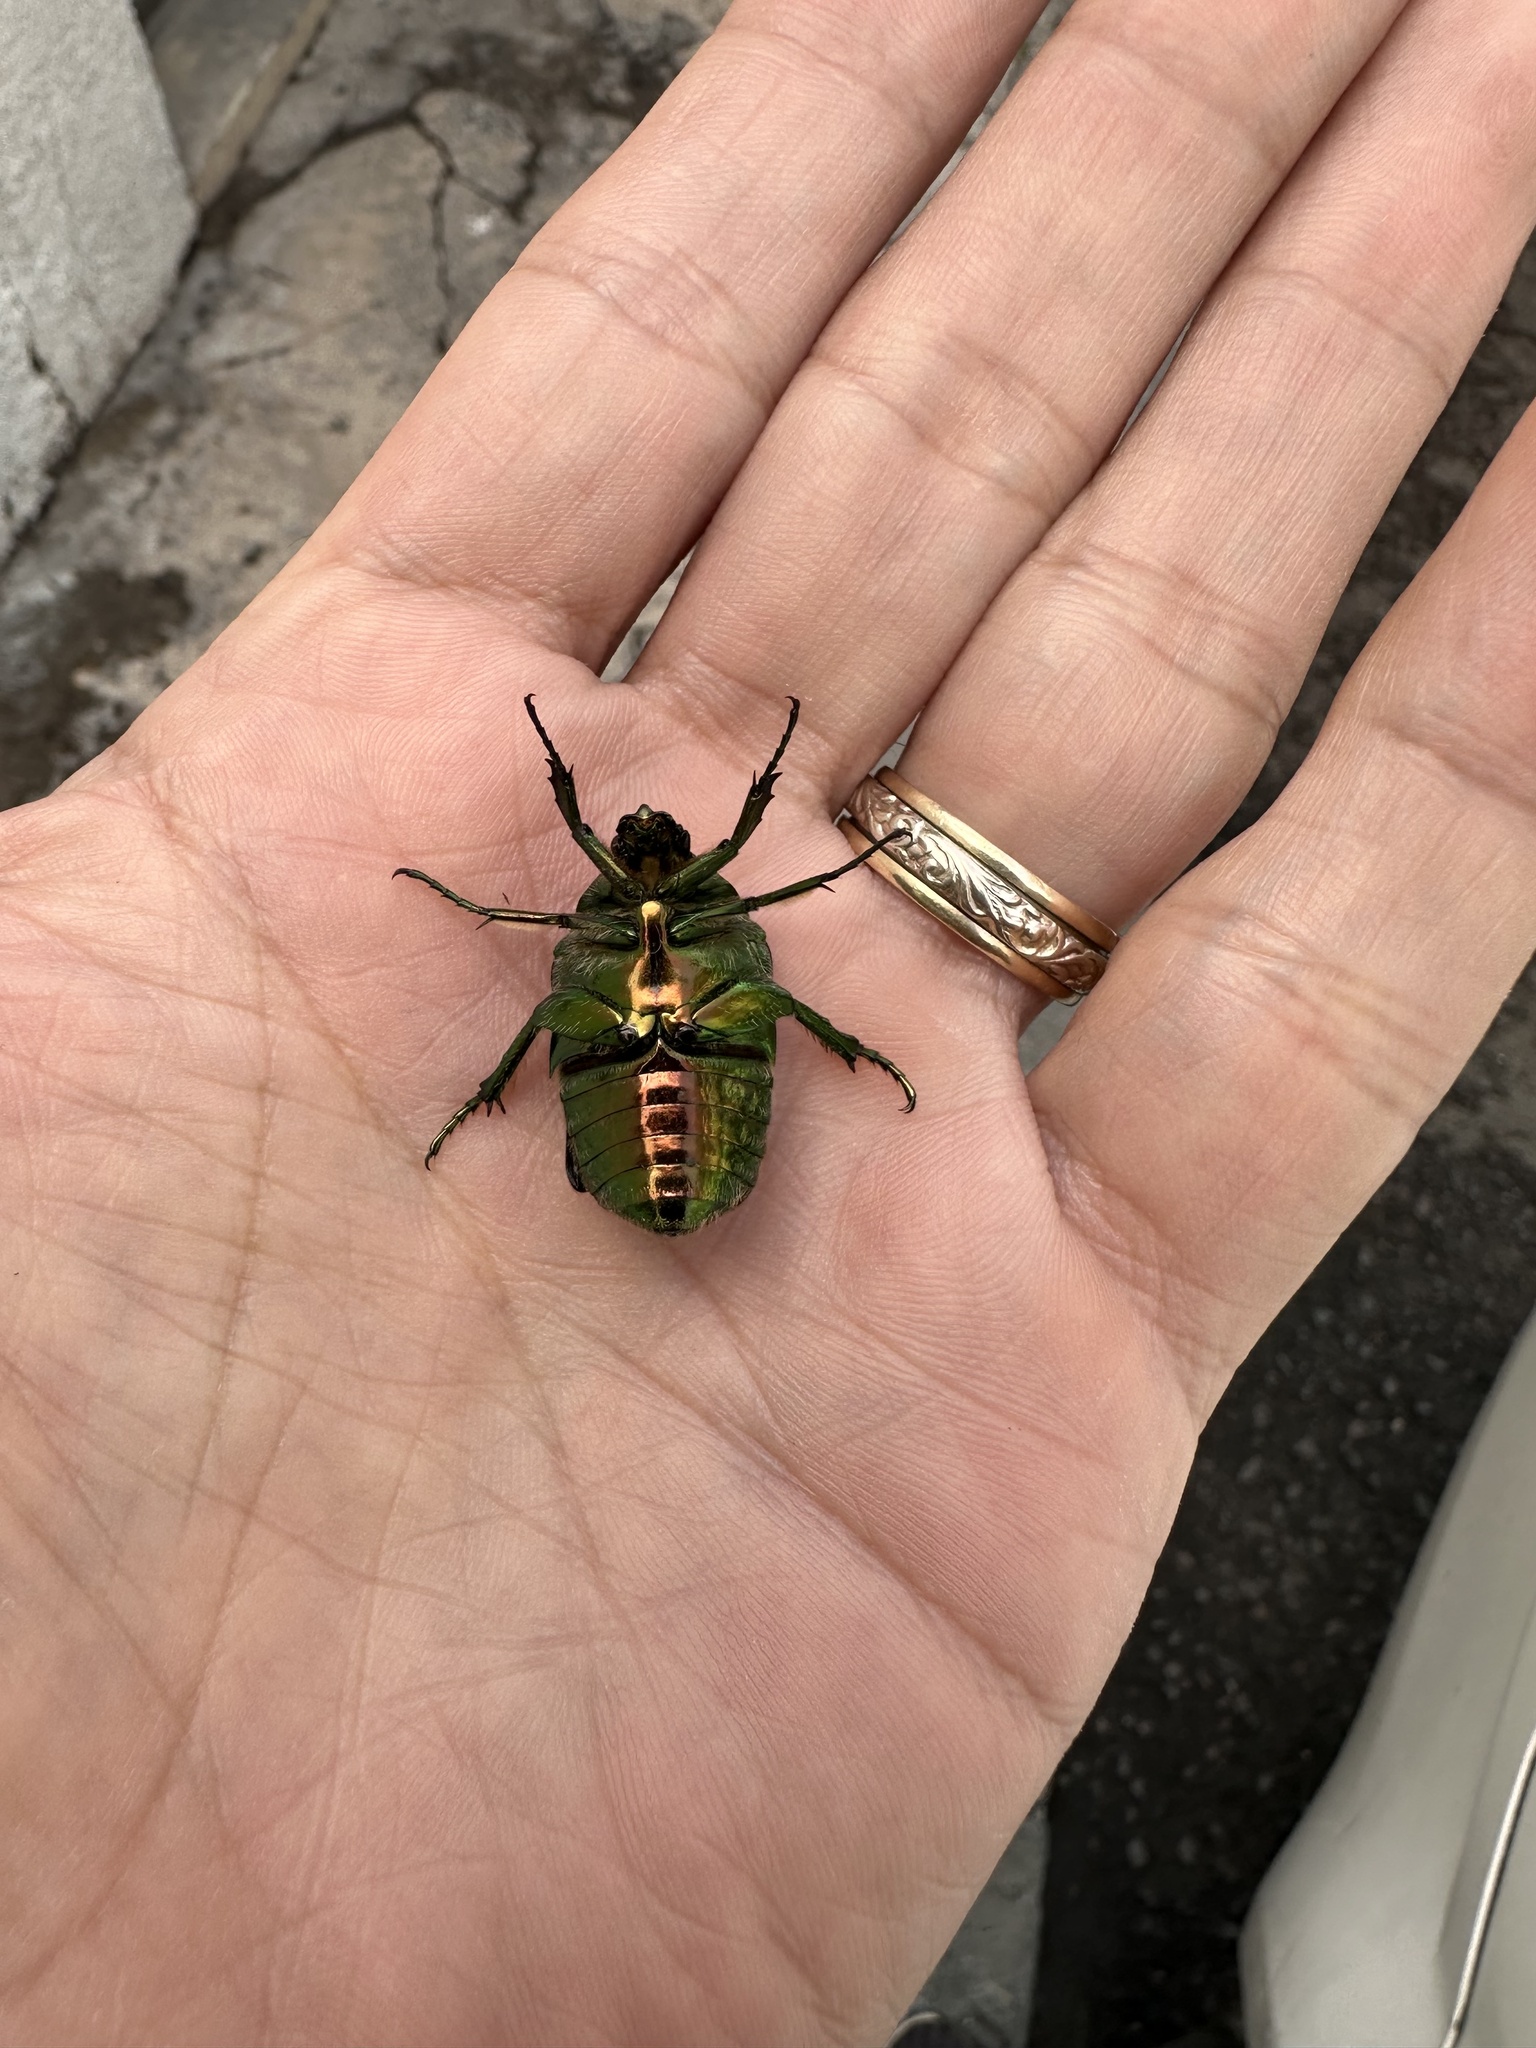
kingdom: Animalia
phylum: Arthropoda
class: Insecta
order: Coleoptera
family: Scarabaeidae
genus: Cotinis
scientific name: Cotinis mutabilis
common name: Figeater beetle
